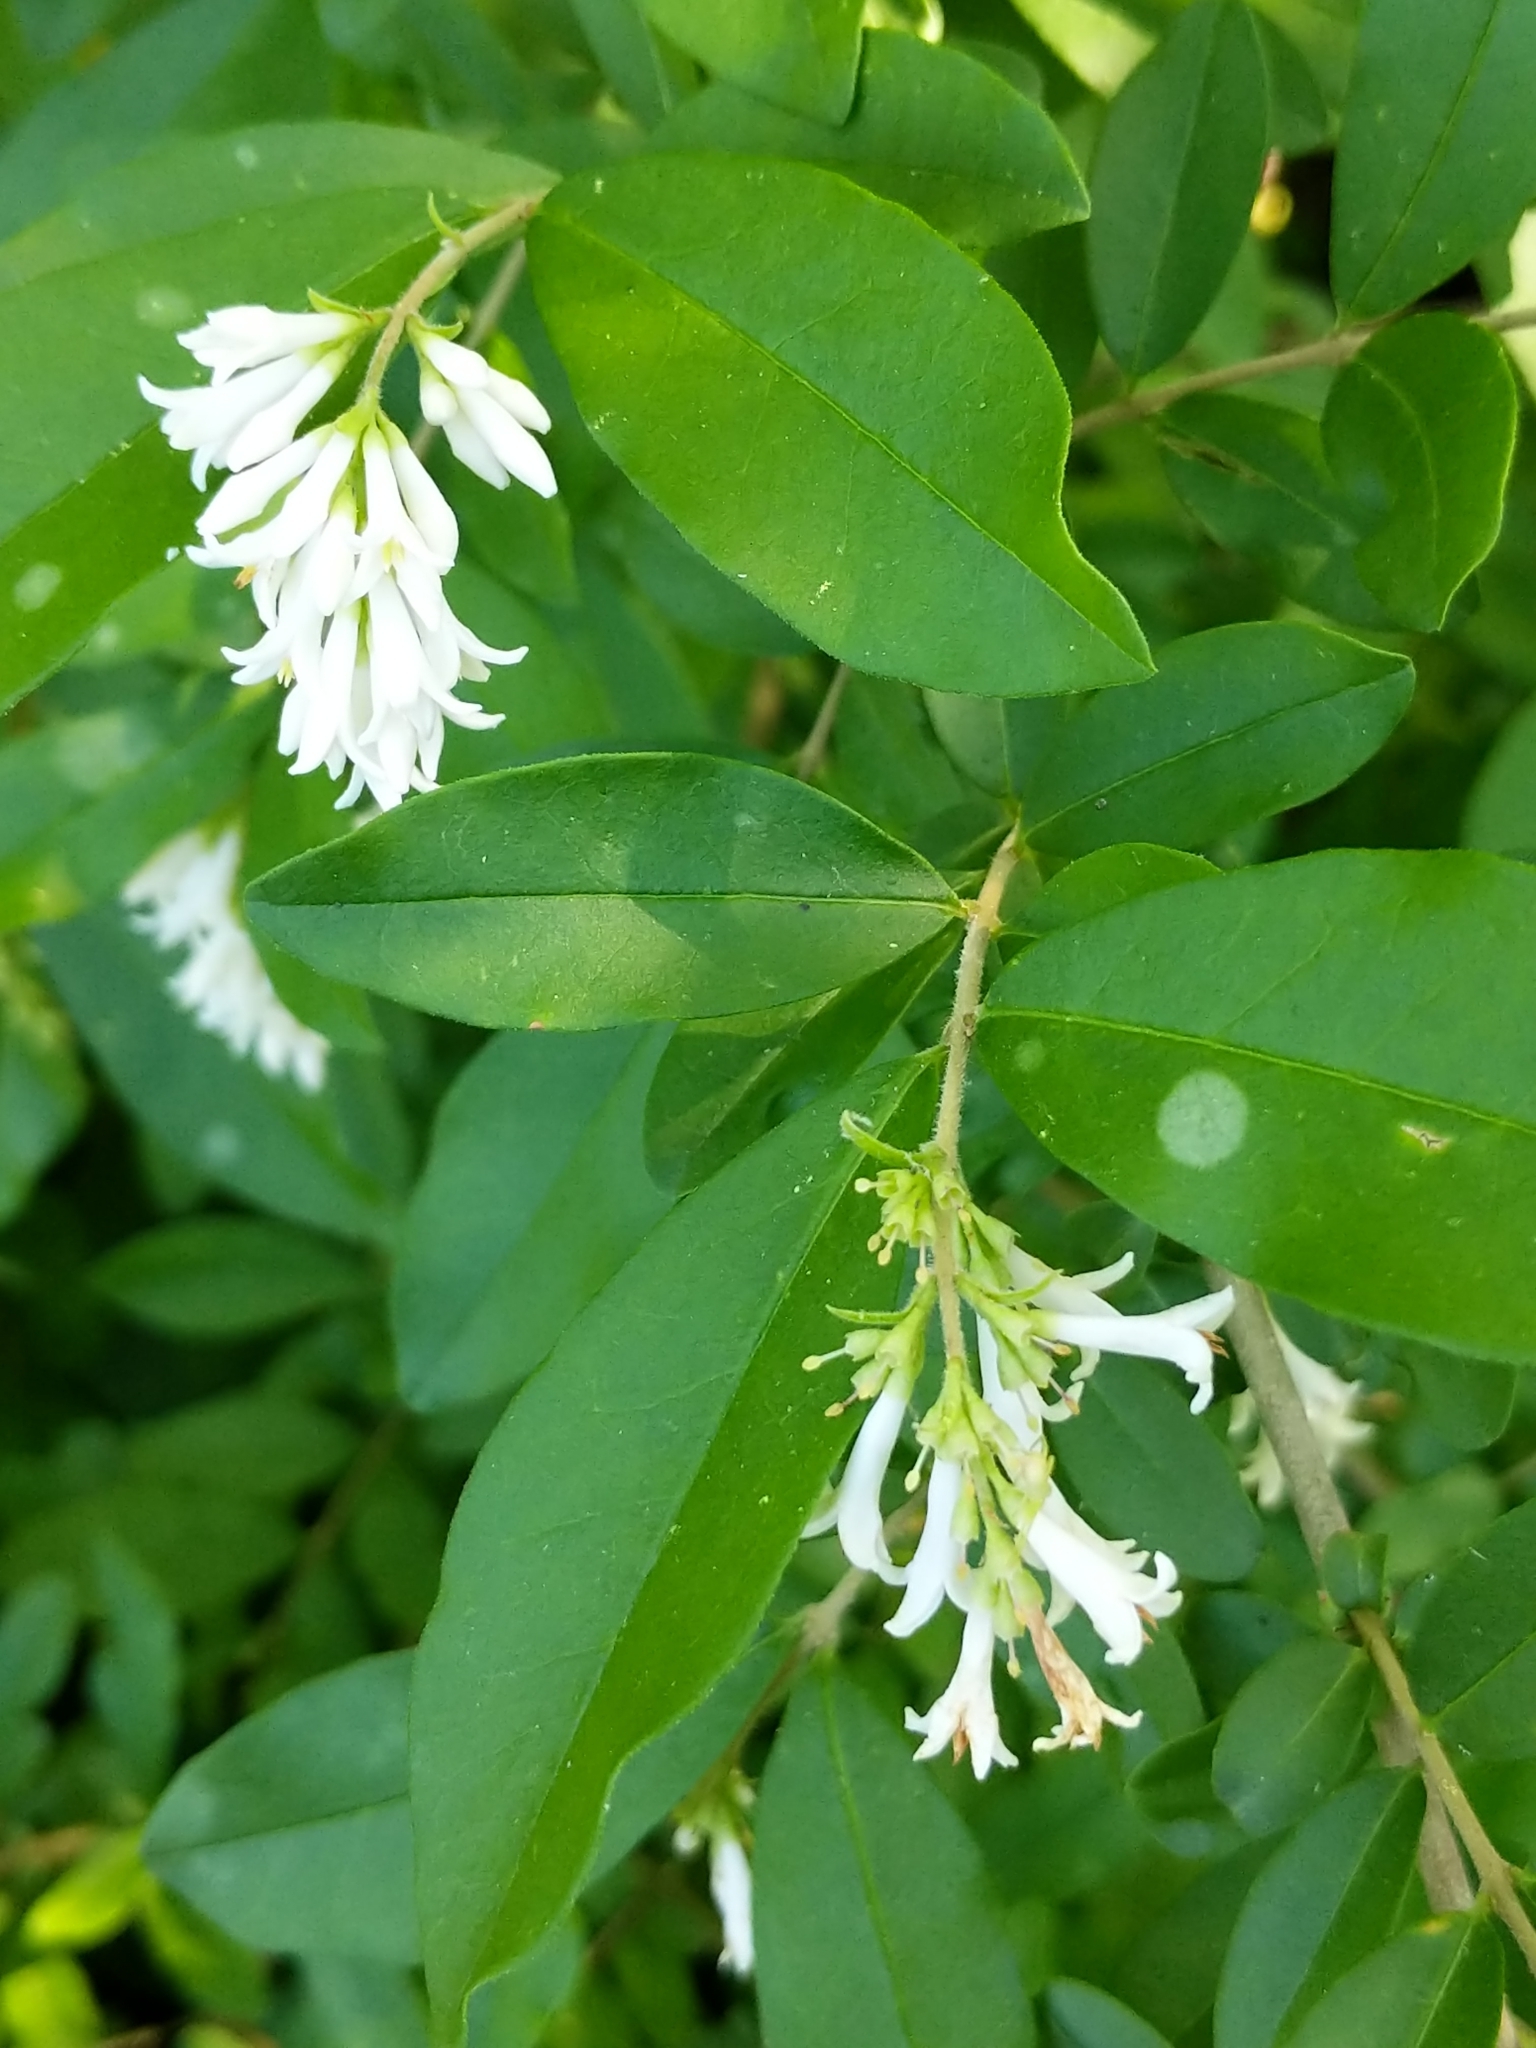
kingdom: Plantae
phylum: Tracheophyta
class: Magnoliopsida
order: Lamiales
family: Oleaceae
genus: Ligustrum
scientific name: Ligustrum obtusifolium
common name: Border privet
